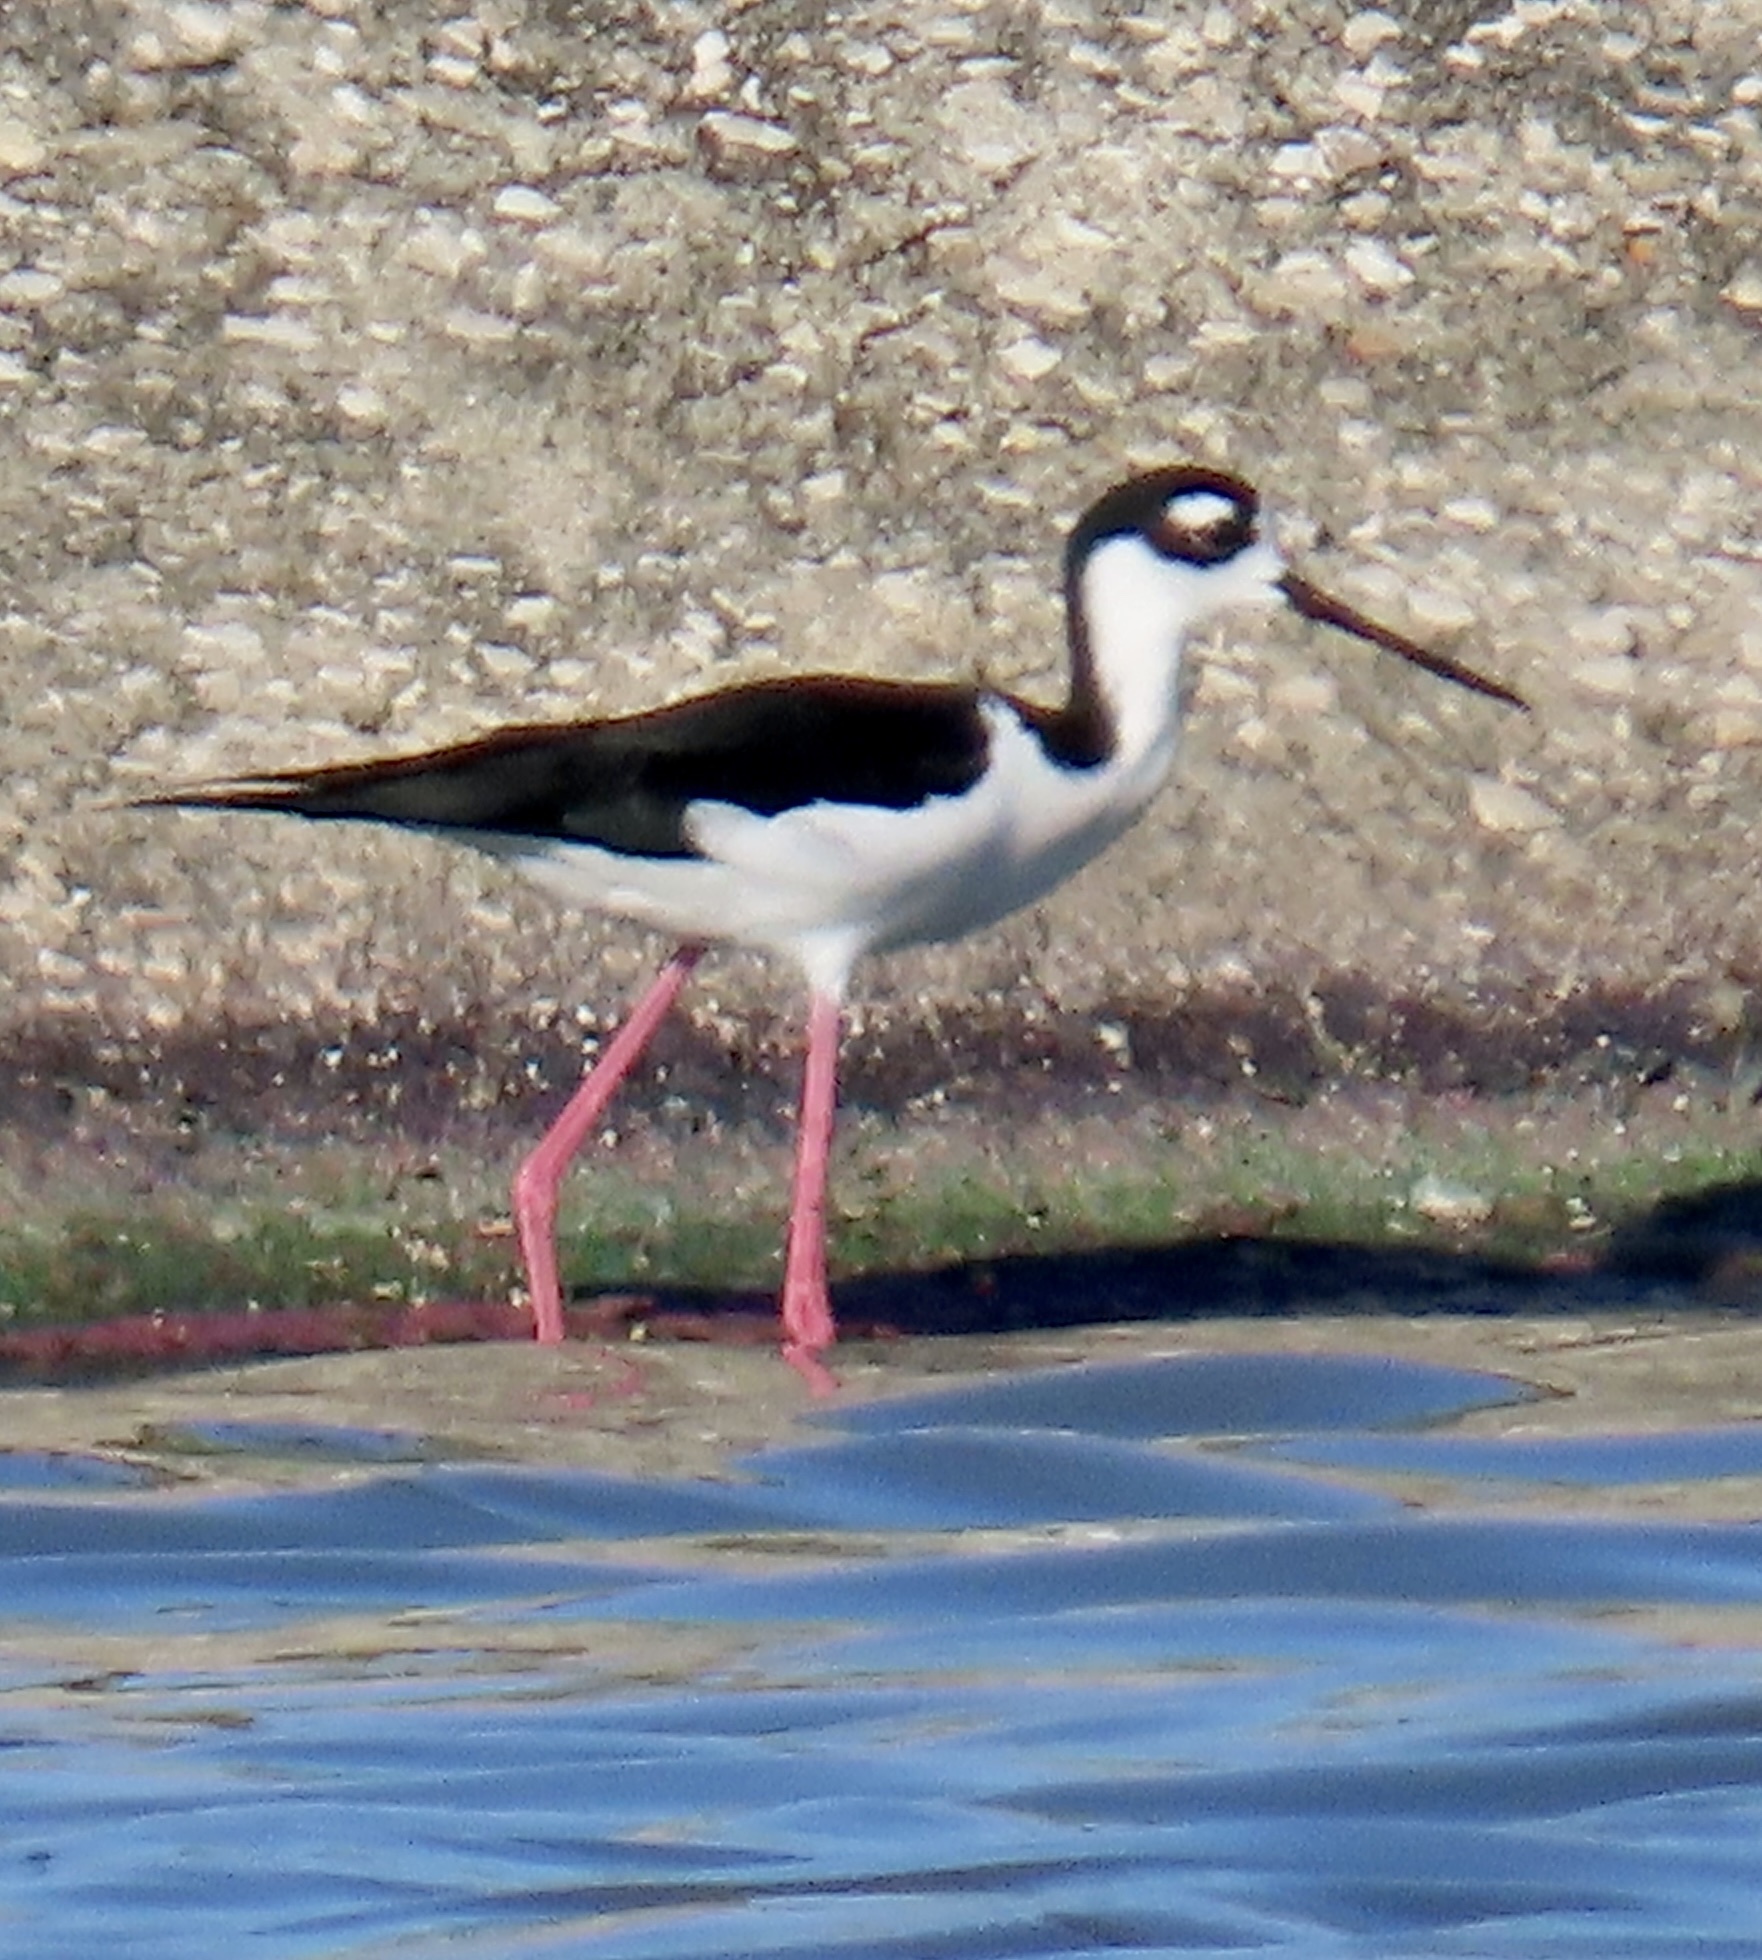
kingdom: Animalia
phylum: Chordata
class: Aves
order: Charadriiformes
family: Recurvirostridae
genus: Himantopus
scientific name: Himantopus mexicanus
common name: Black-necked stilt
